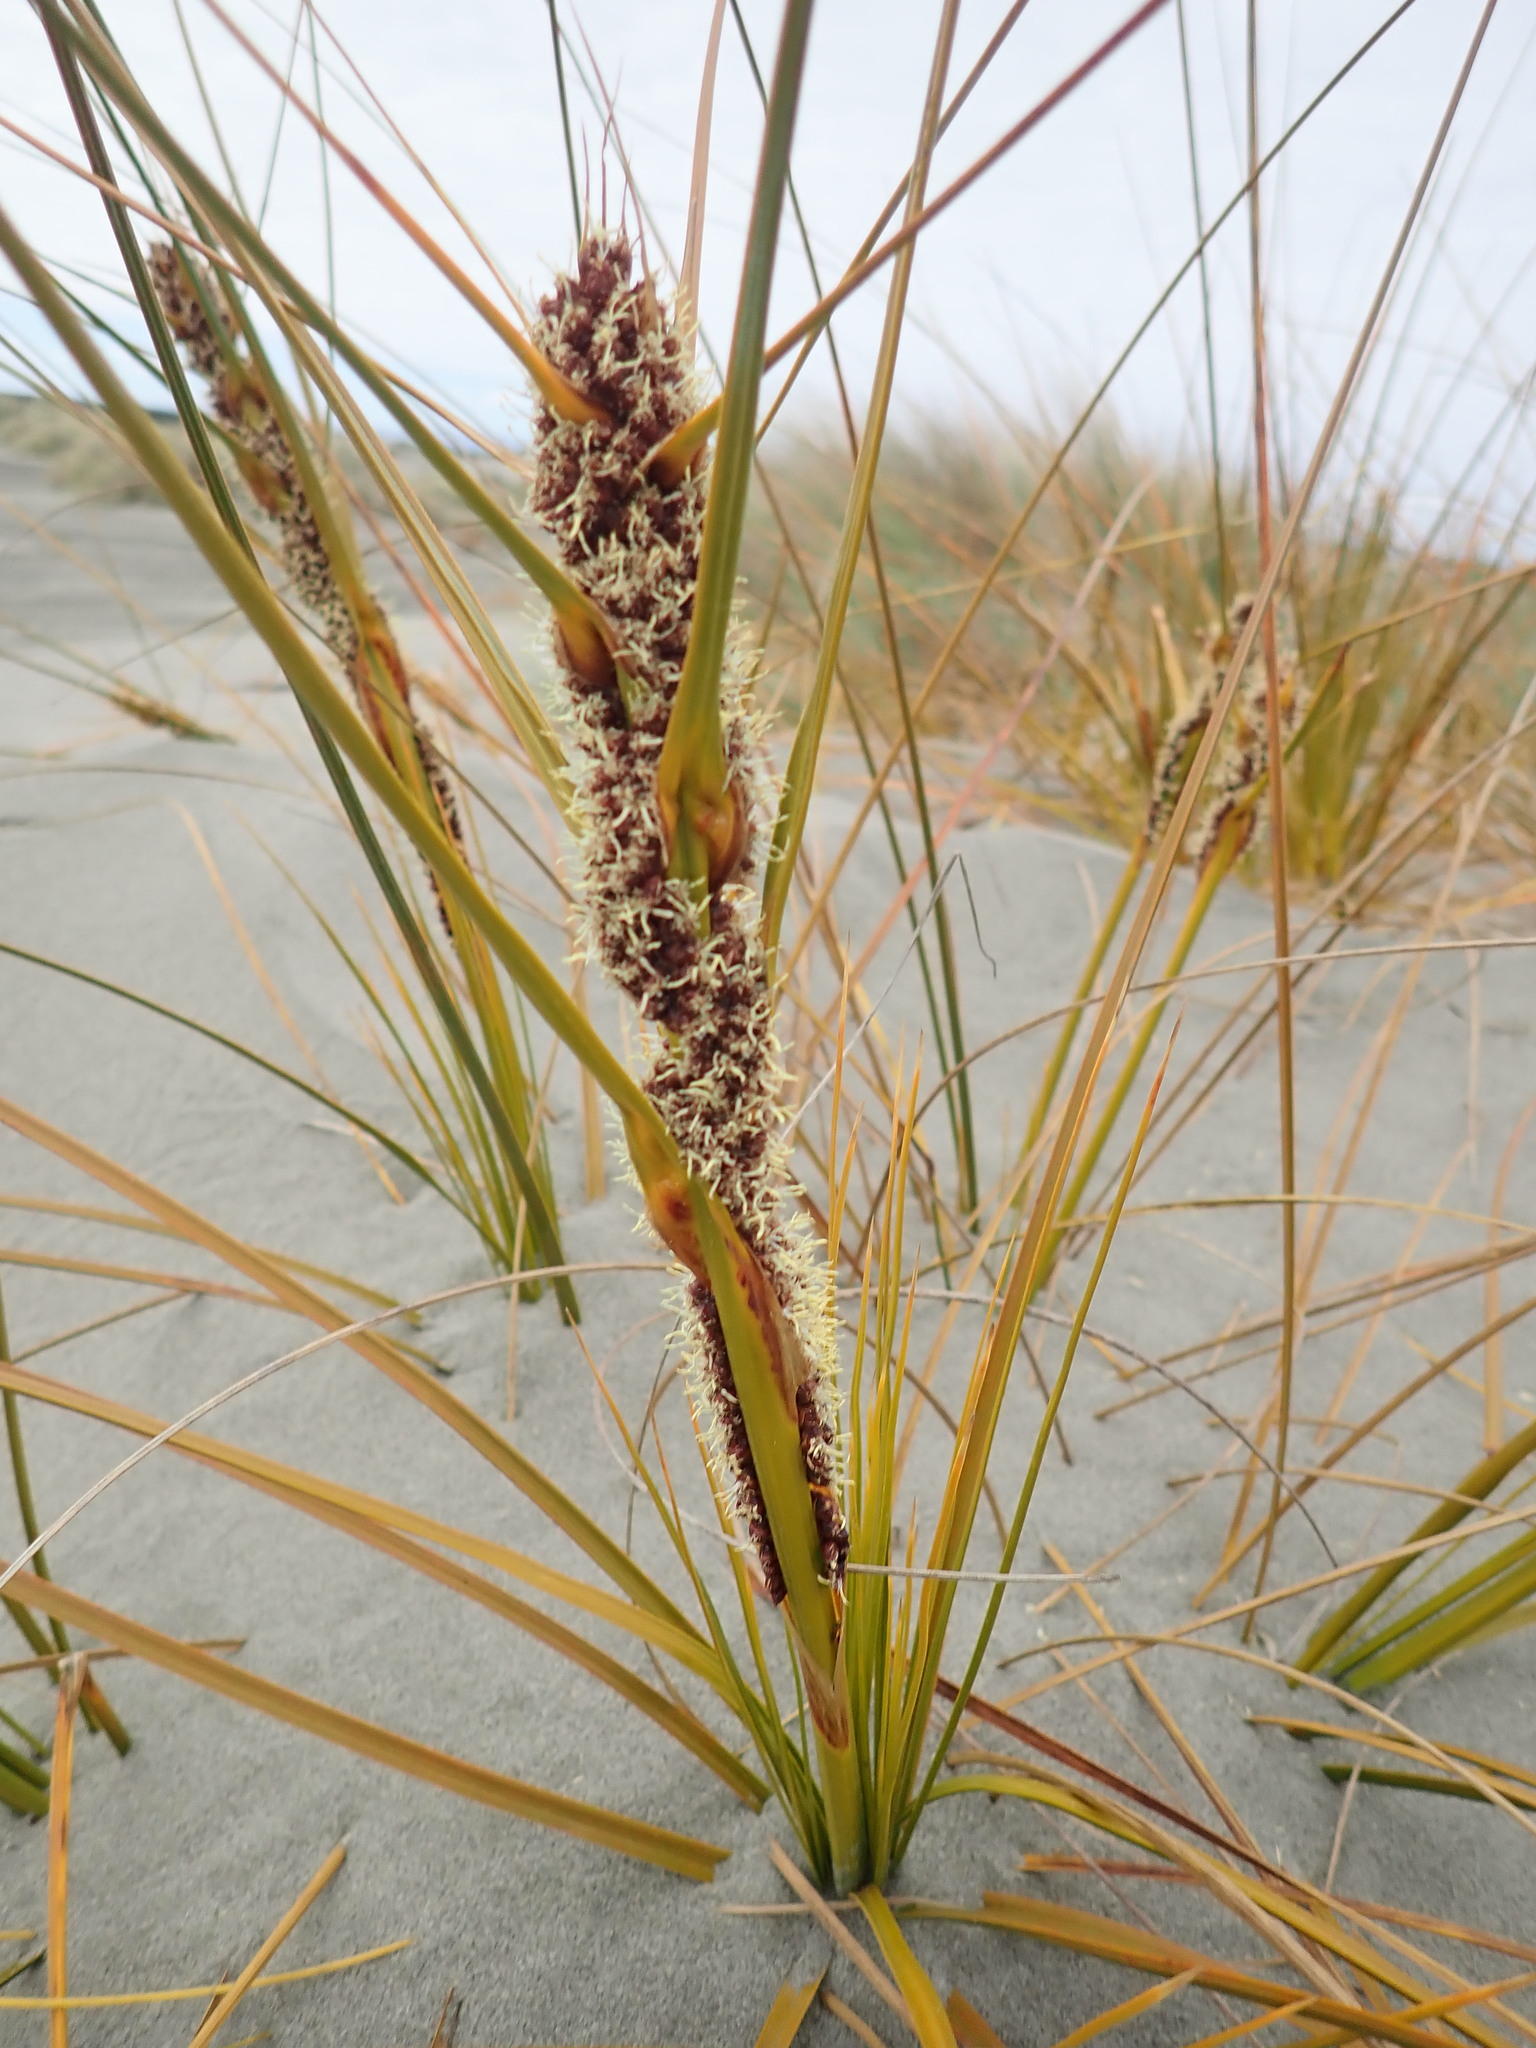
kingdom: Plantae
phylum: Tracheophyta
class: Liliopsida
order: Poales
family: Cyperaceae
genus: Ficinia
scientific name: Ficinia spiralis
